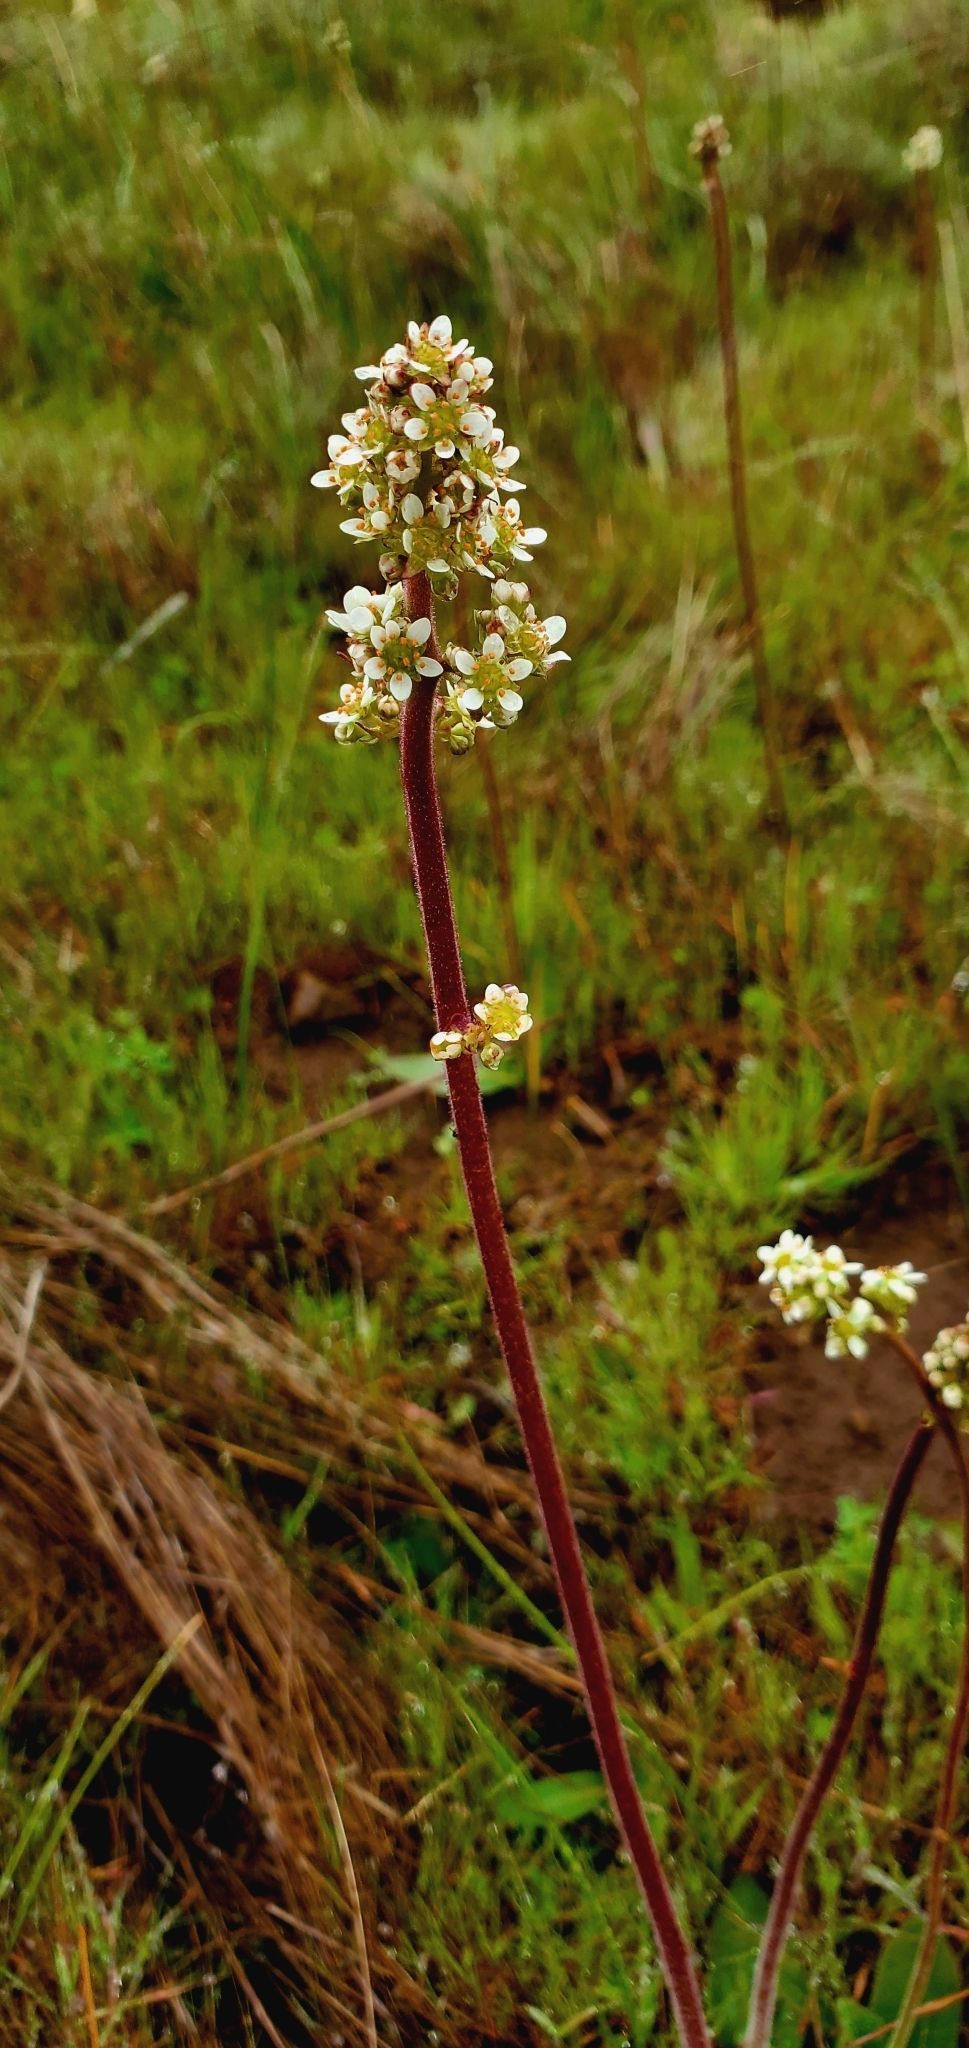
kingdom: Plantae
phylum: Tracheophyta
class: Magnoliopsida
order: Saxifragales
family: Saxifragaceae
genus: Micranthes
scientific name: Micranthes oregana
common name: Bog saxifrage
